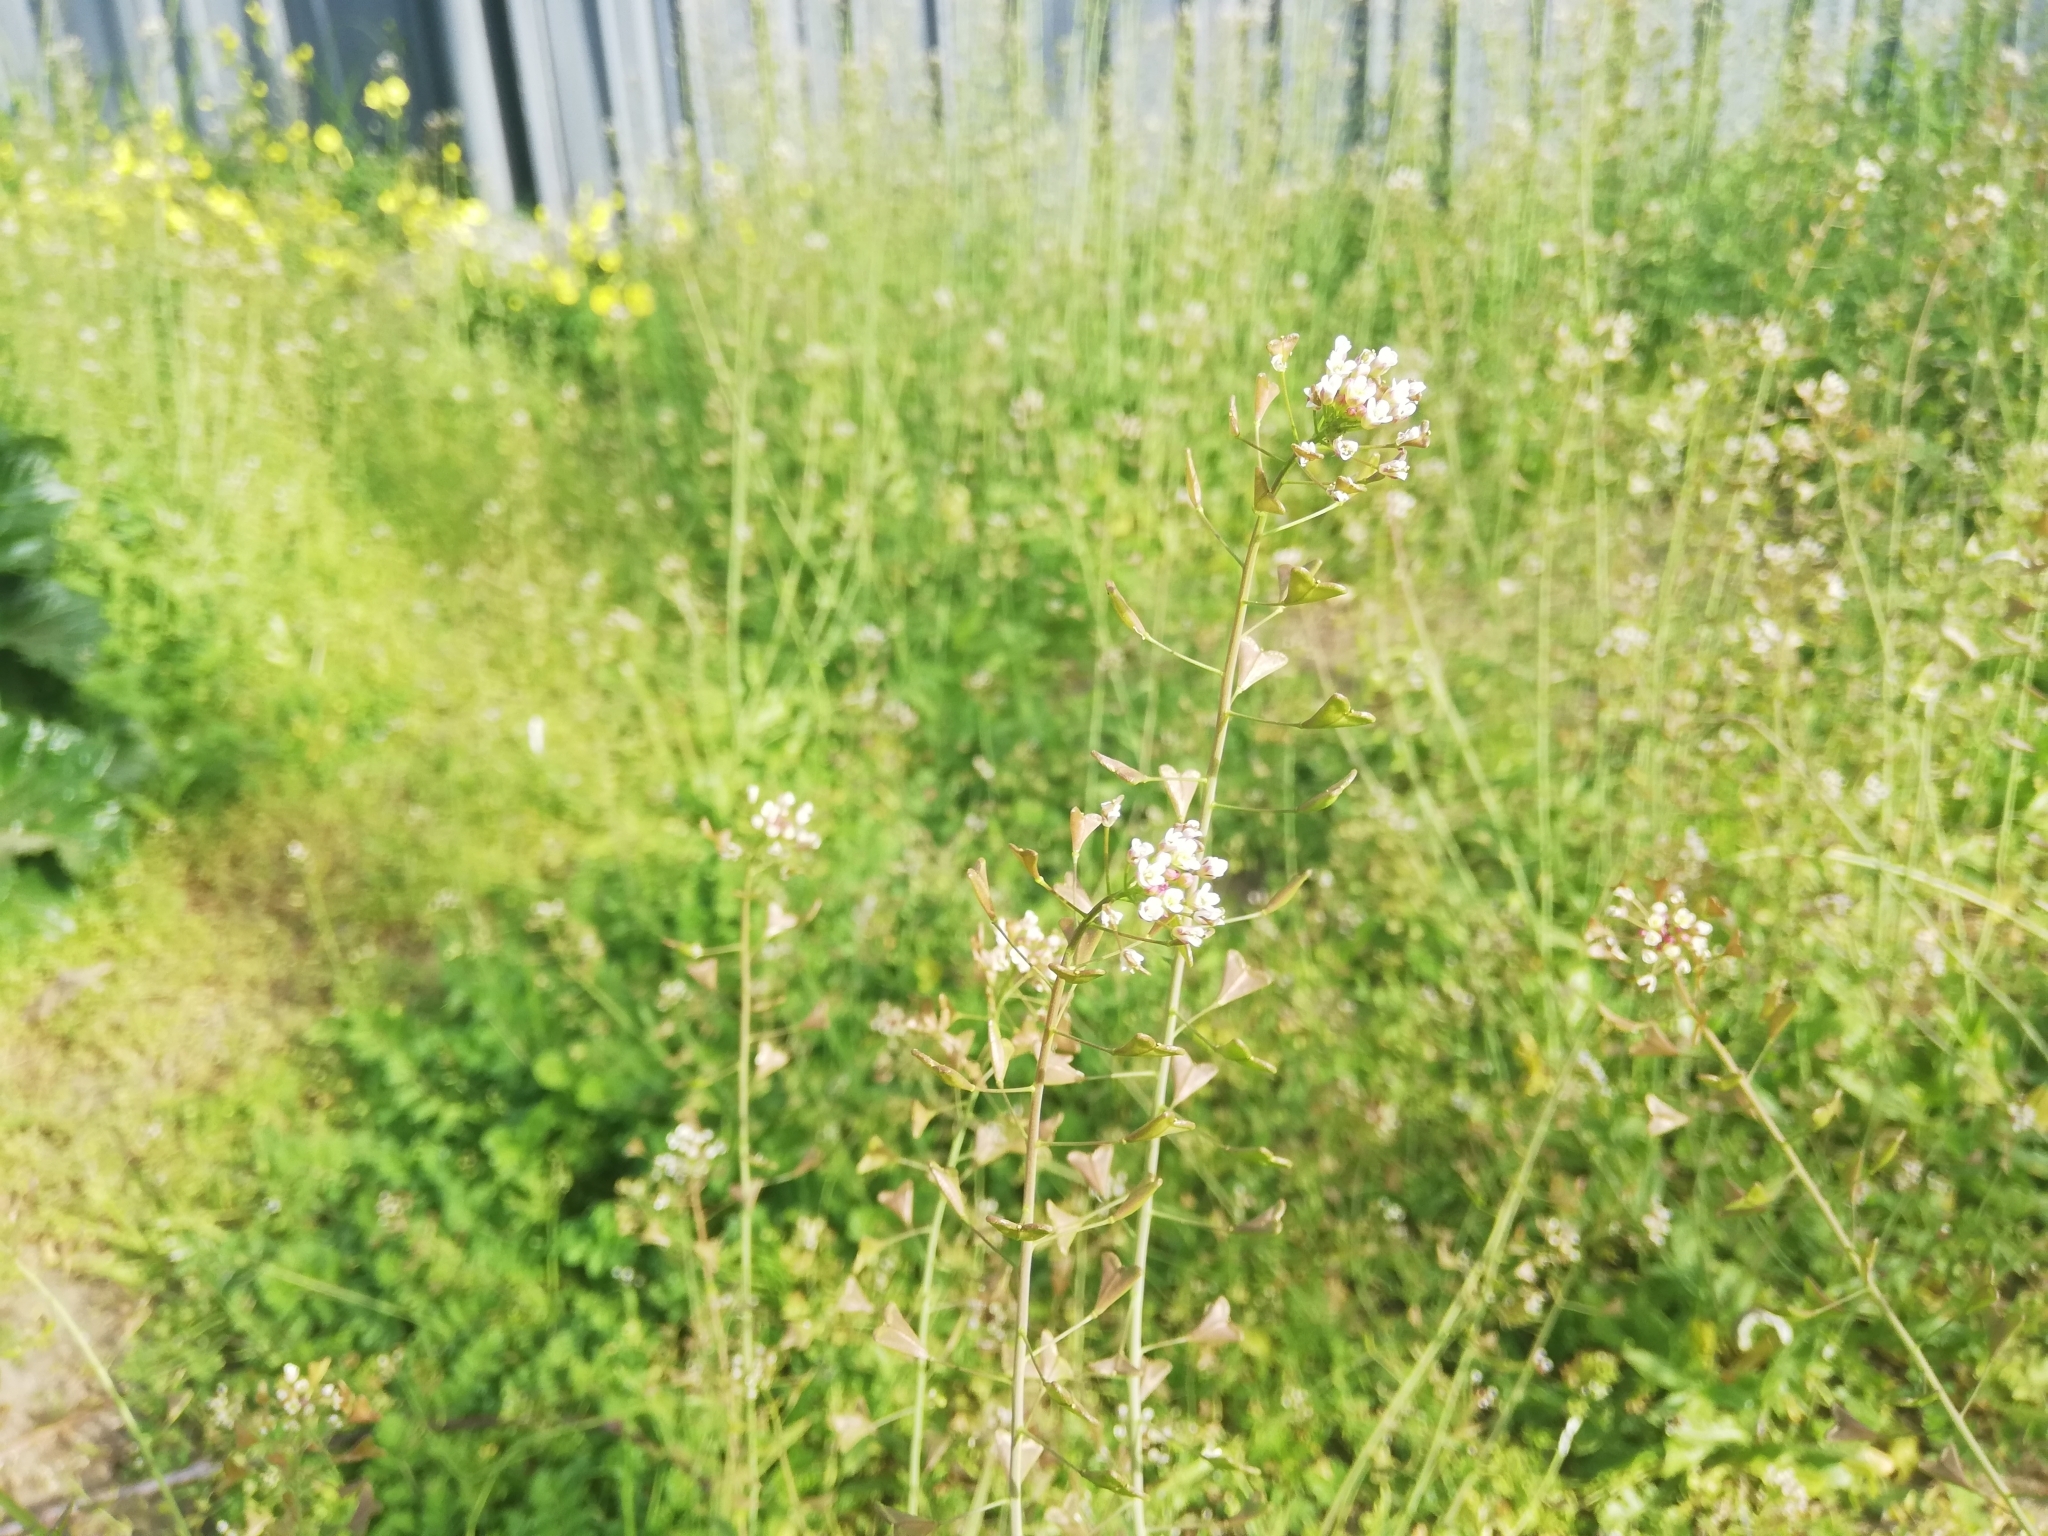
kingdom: Plantae
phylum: Tracheophyta
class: Magnoliopsida
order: Brassicales
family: Brassicaceae
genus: Capsella
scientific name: Capsella bursa-pastoris
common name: Shepherd's purse
